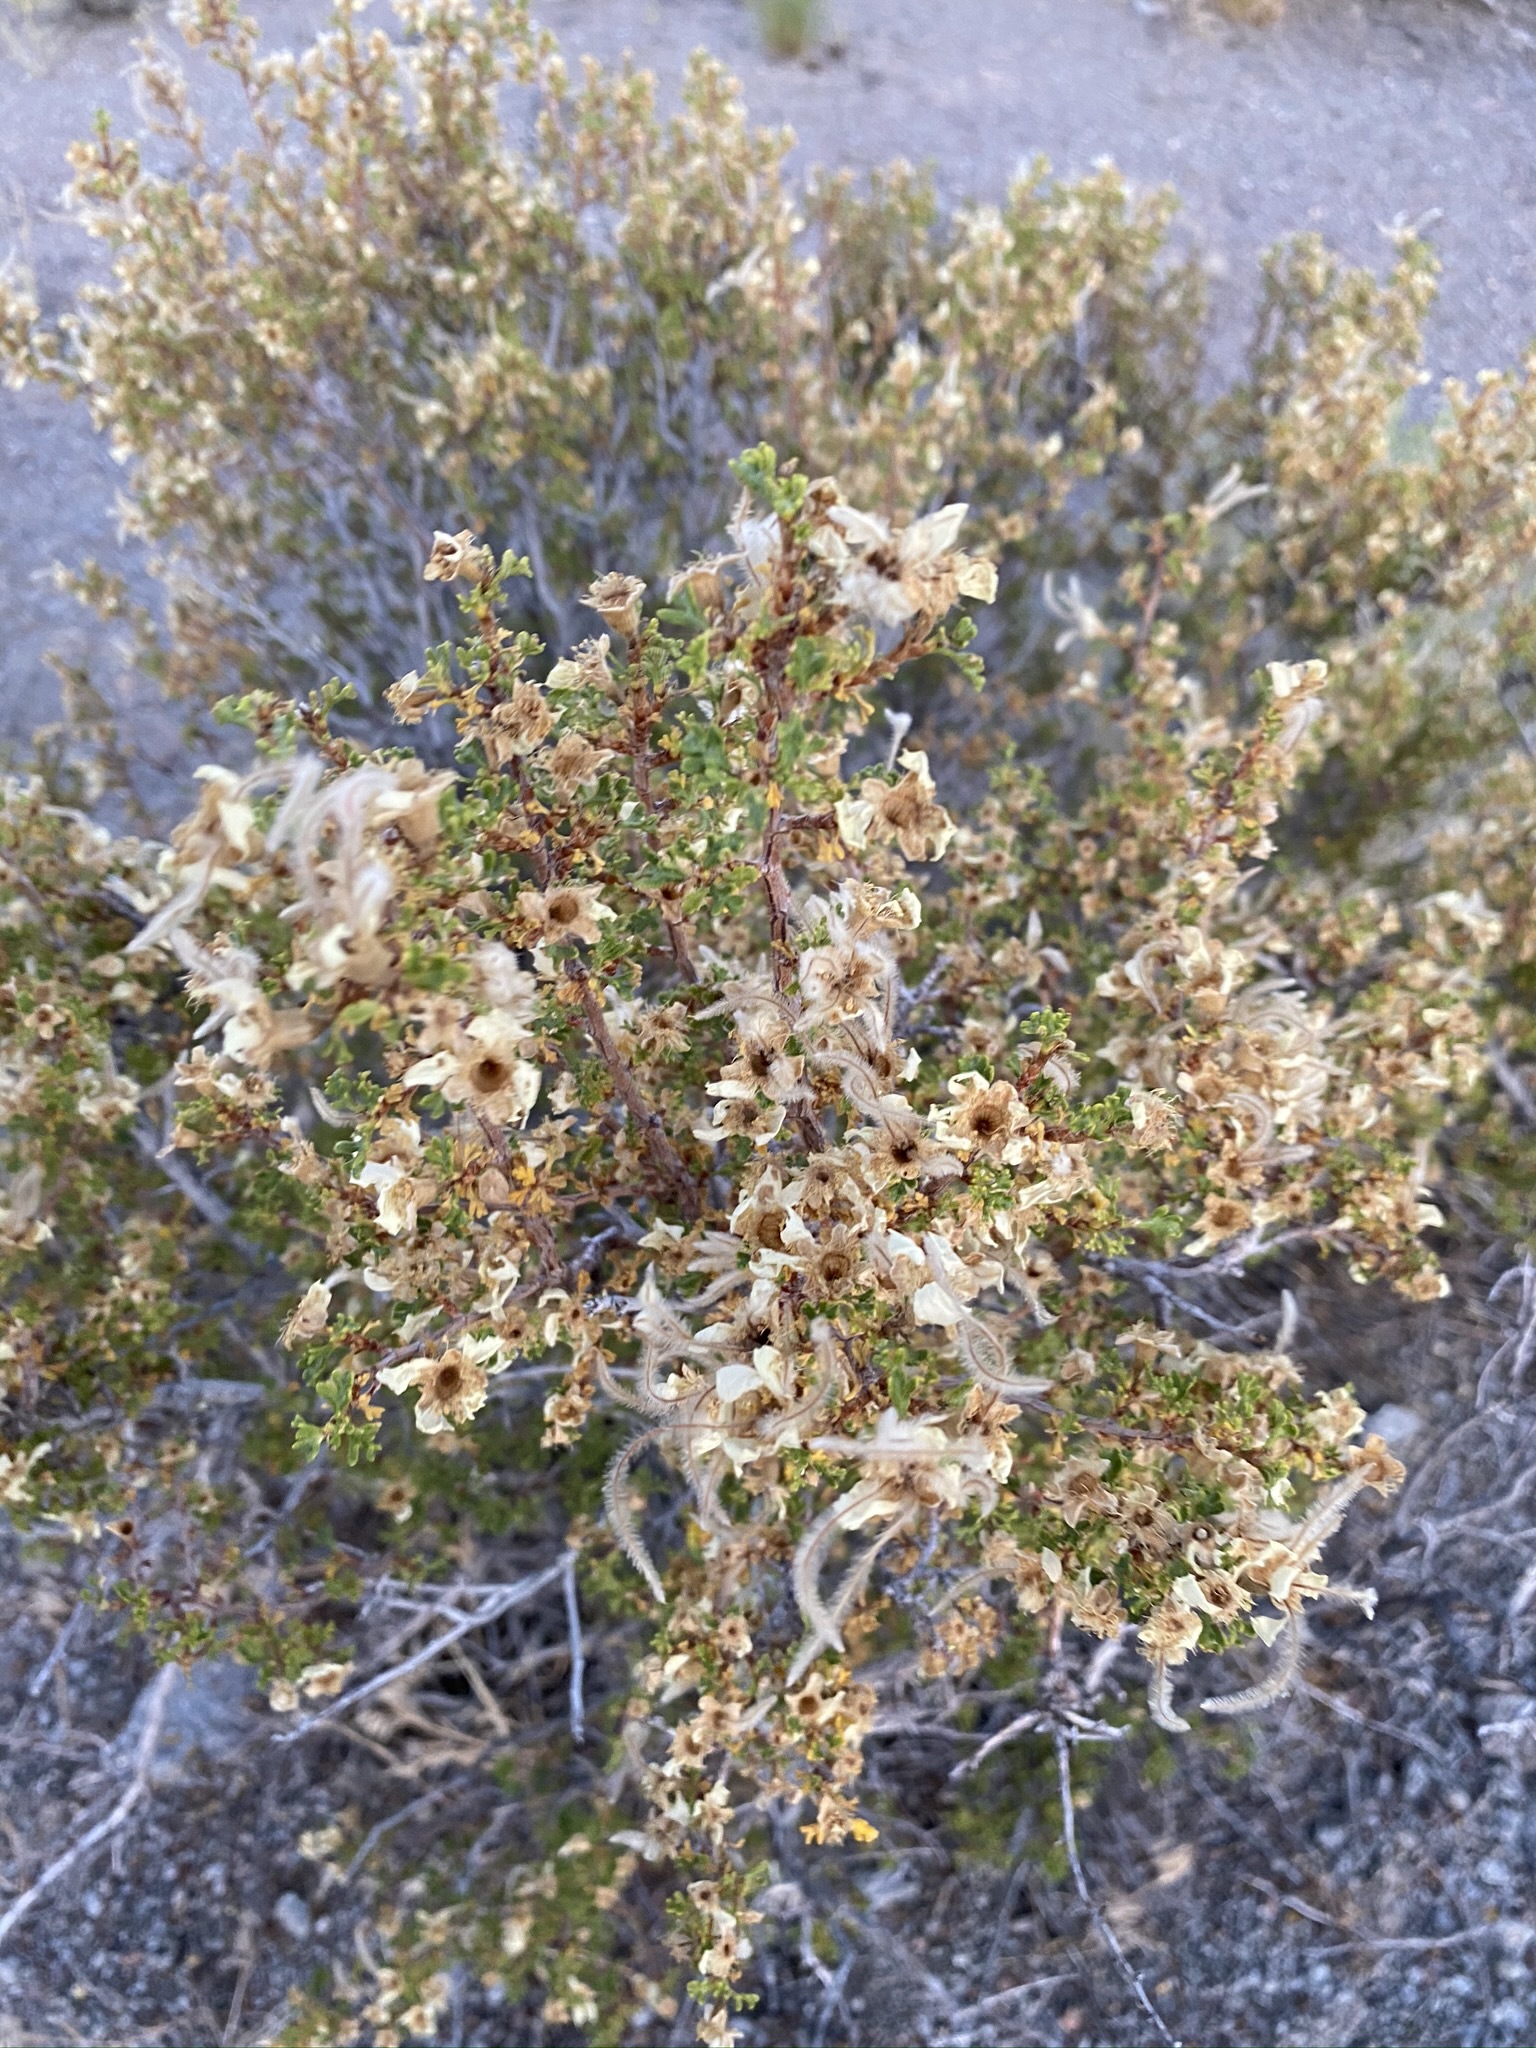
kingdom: Plantae
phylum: Tracheophyta
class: Magnoliopsida
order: Rosales
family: Rosaceae
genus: Purshia
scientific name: Purshia stansburiana
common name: Stansbury's cliffrose
